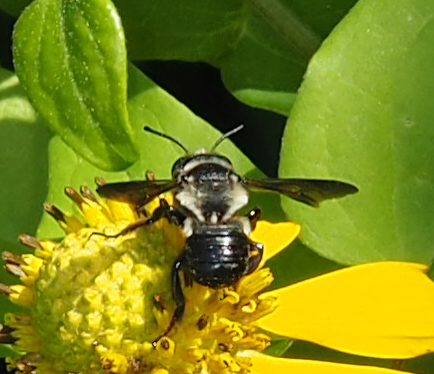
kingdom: Animalia
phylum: Arthropoda
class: Insecta
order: Hymenoptera
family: Megachilidae
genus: Megachile
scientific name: Megachile xylocopoides
